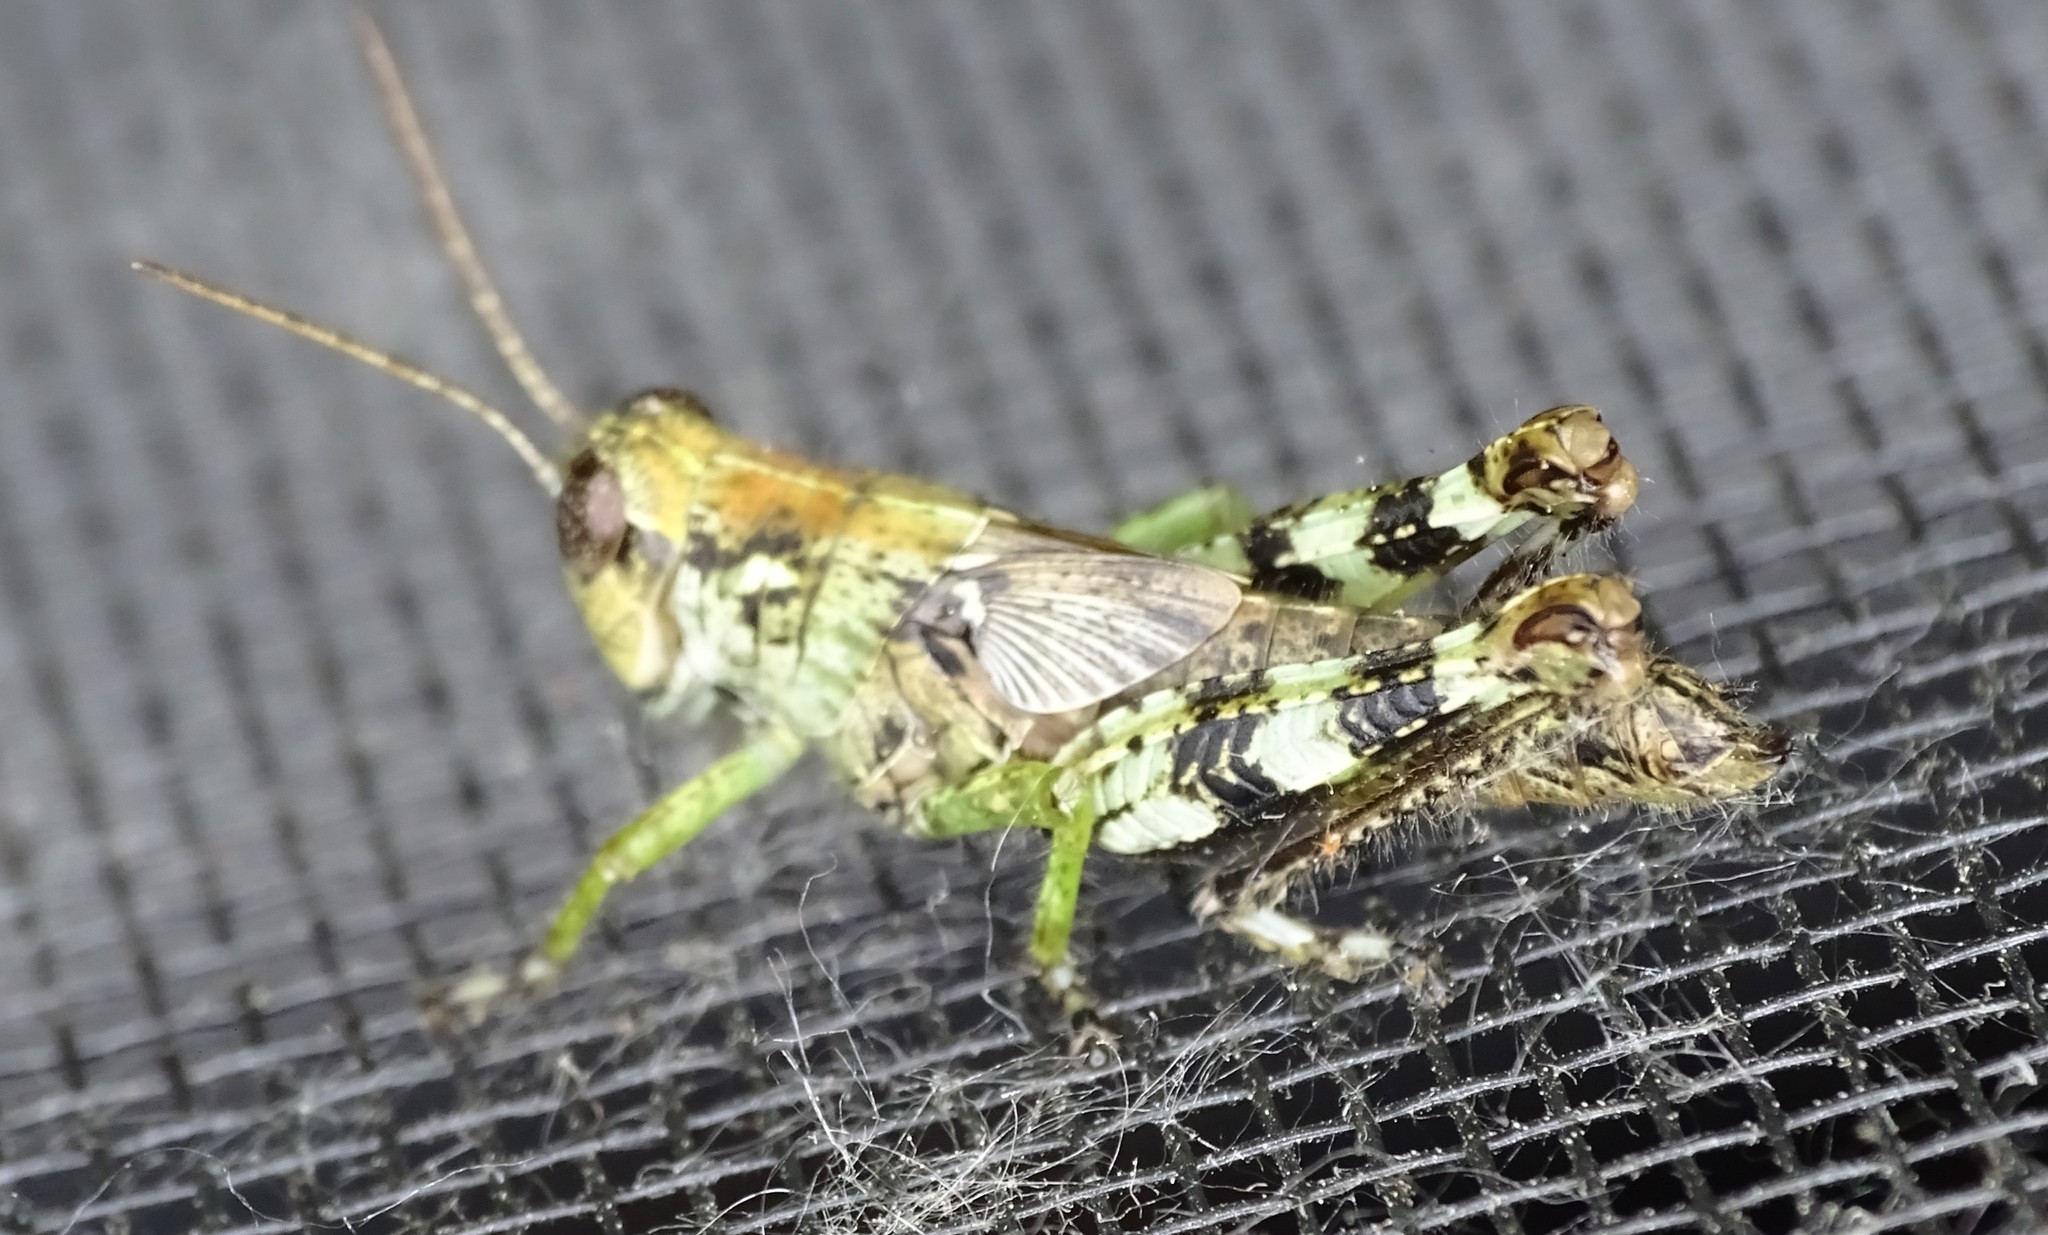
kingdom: Animalia
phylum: Arthropoda
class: Insecta
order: Orthoptera
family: Acrididae
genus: Melanoplus
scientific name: Melanoplus punctulatus
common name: Pine-tree spur-throat grasshopper
